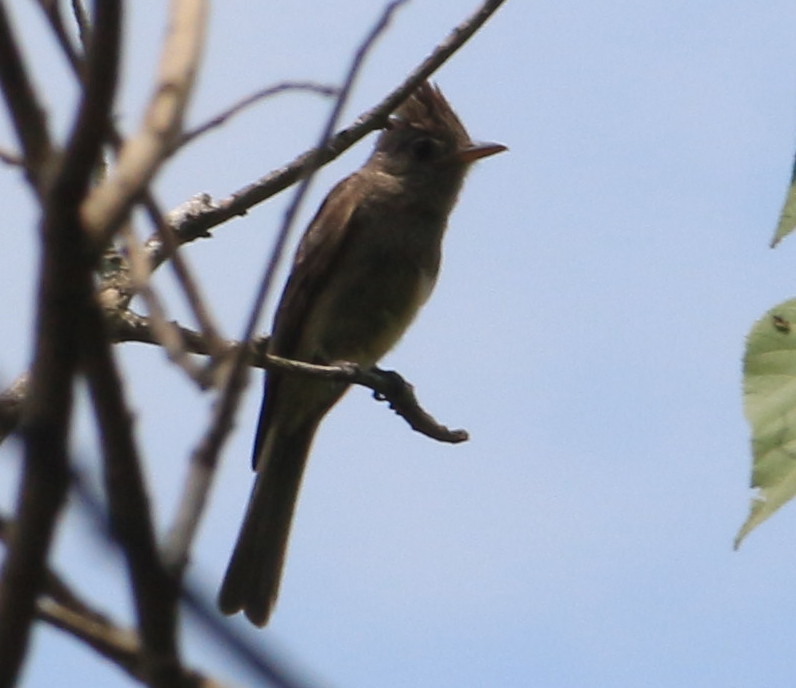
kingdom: Animalia
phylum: Chordata
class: Aves
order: Passeriformes
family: Tyrannidae
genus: Contopus
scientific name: Contopus pertinax
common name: Greater pewee
